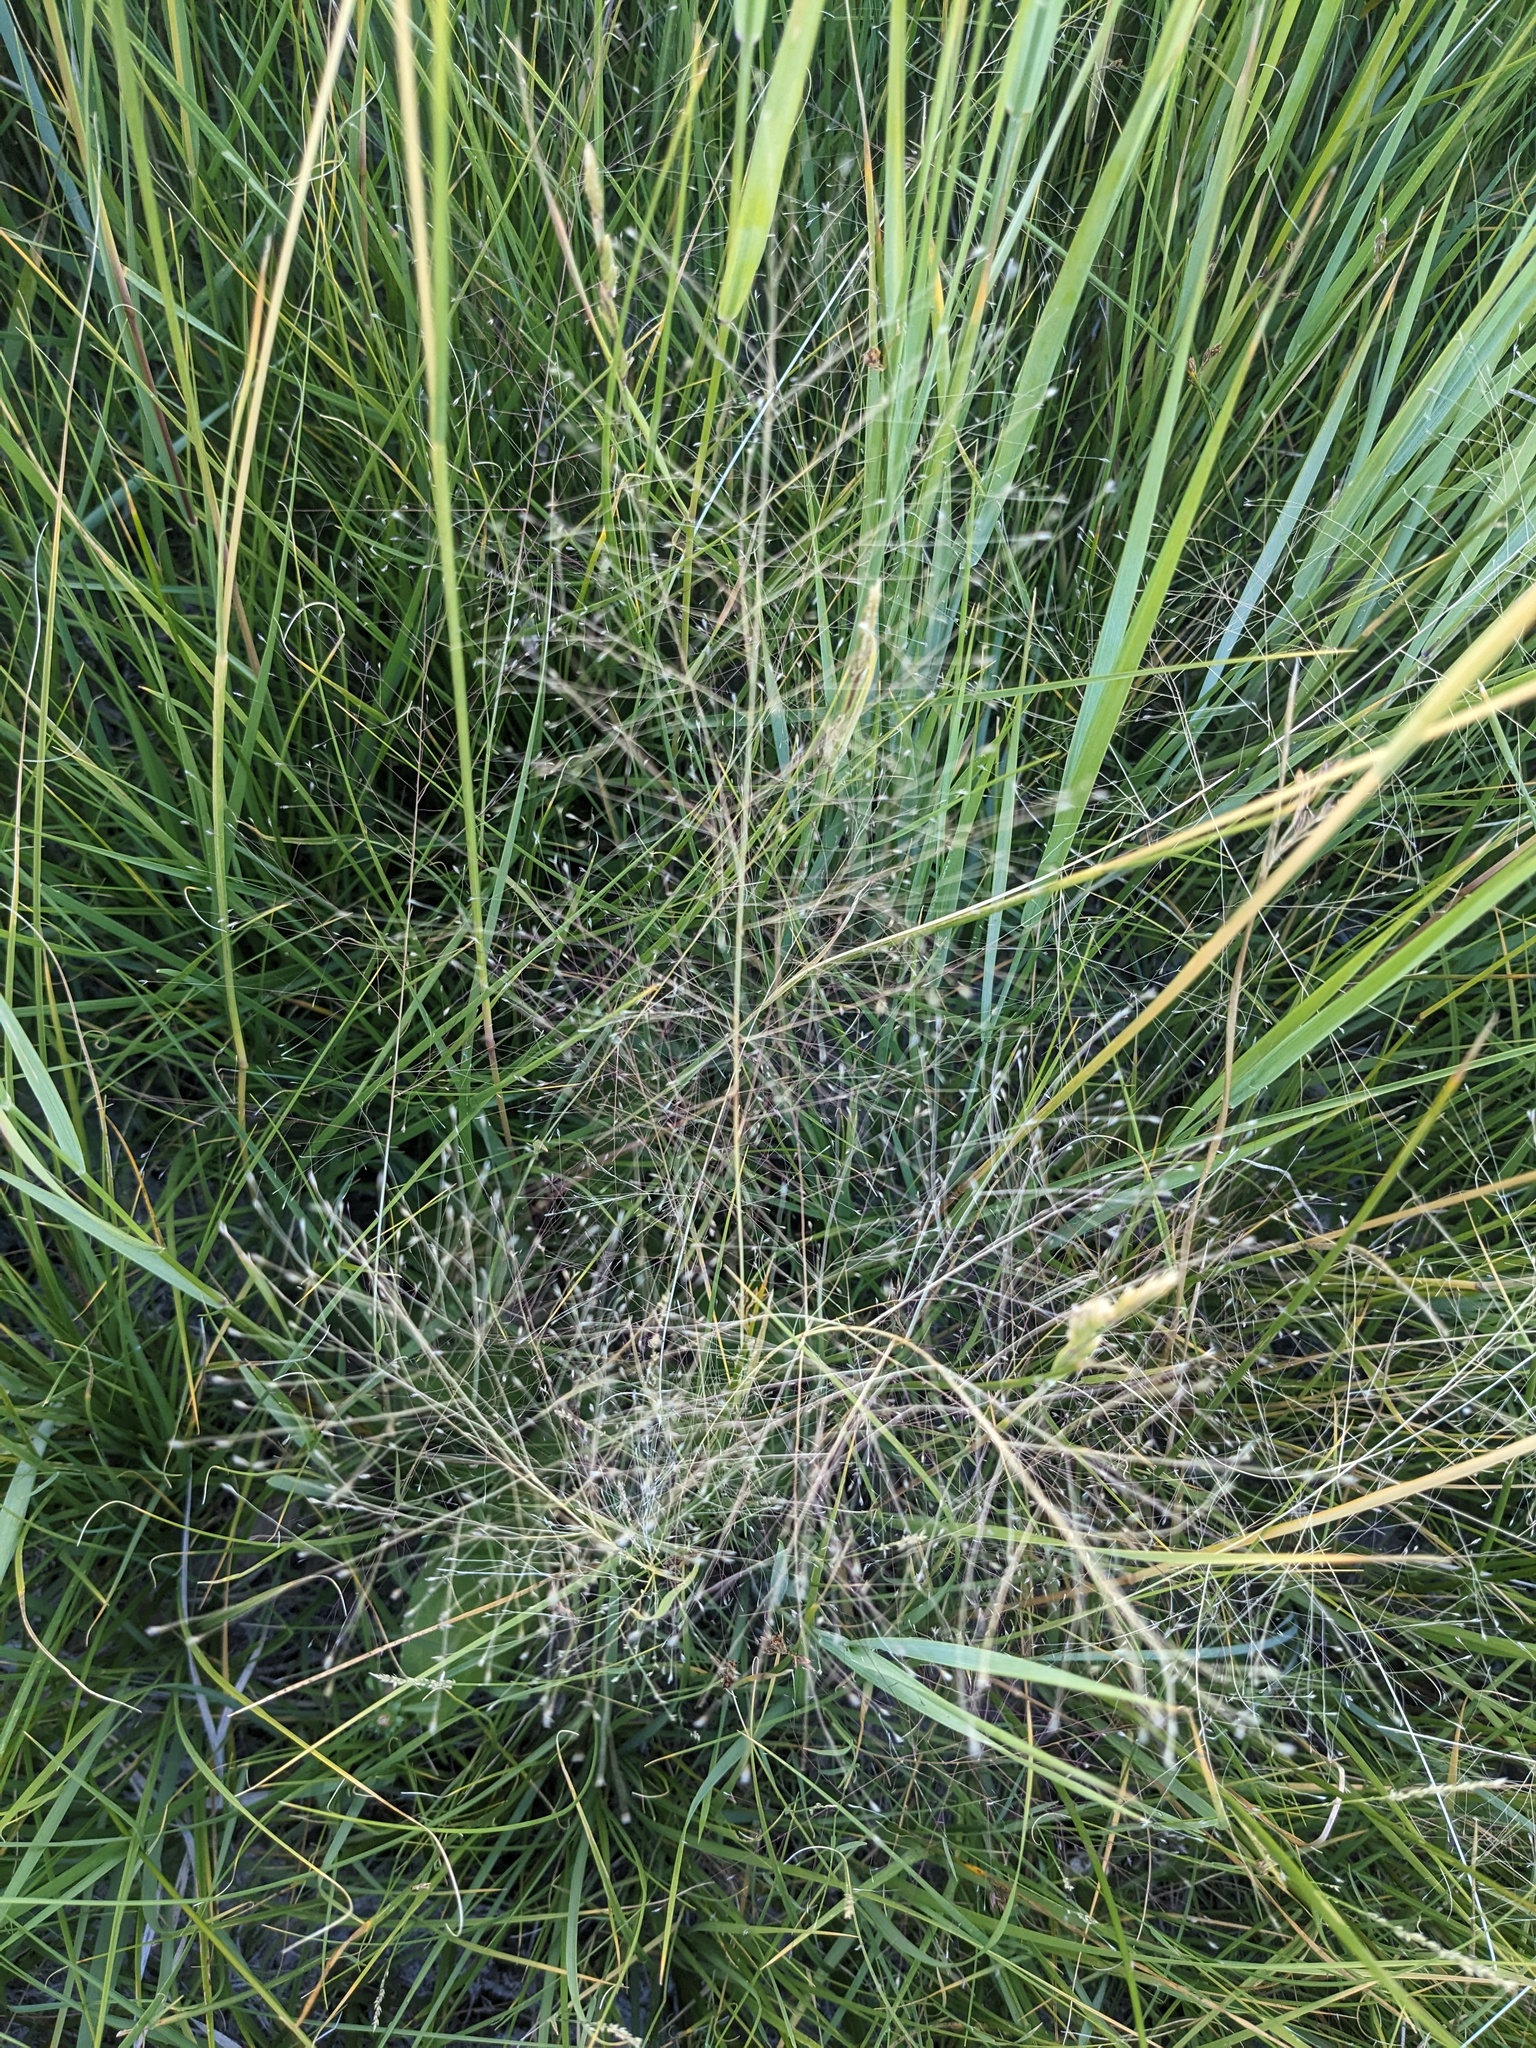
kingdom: Plantae
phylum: Tracheophyta
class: Liliopsida
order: Poales
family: Poaceae
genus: Muhlenbergia
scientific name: Muhlenbergia asperifolia
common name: Alkali muhly
